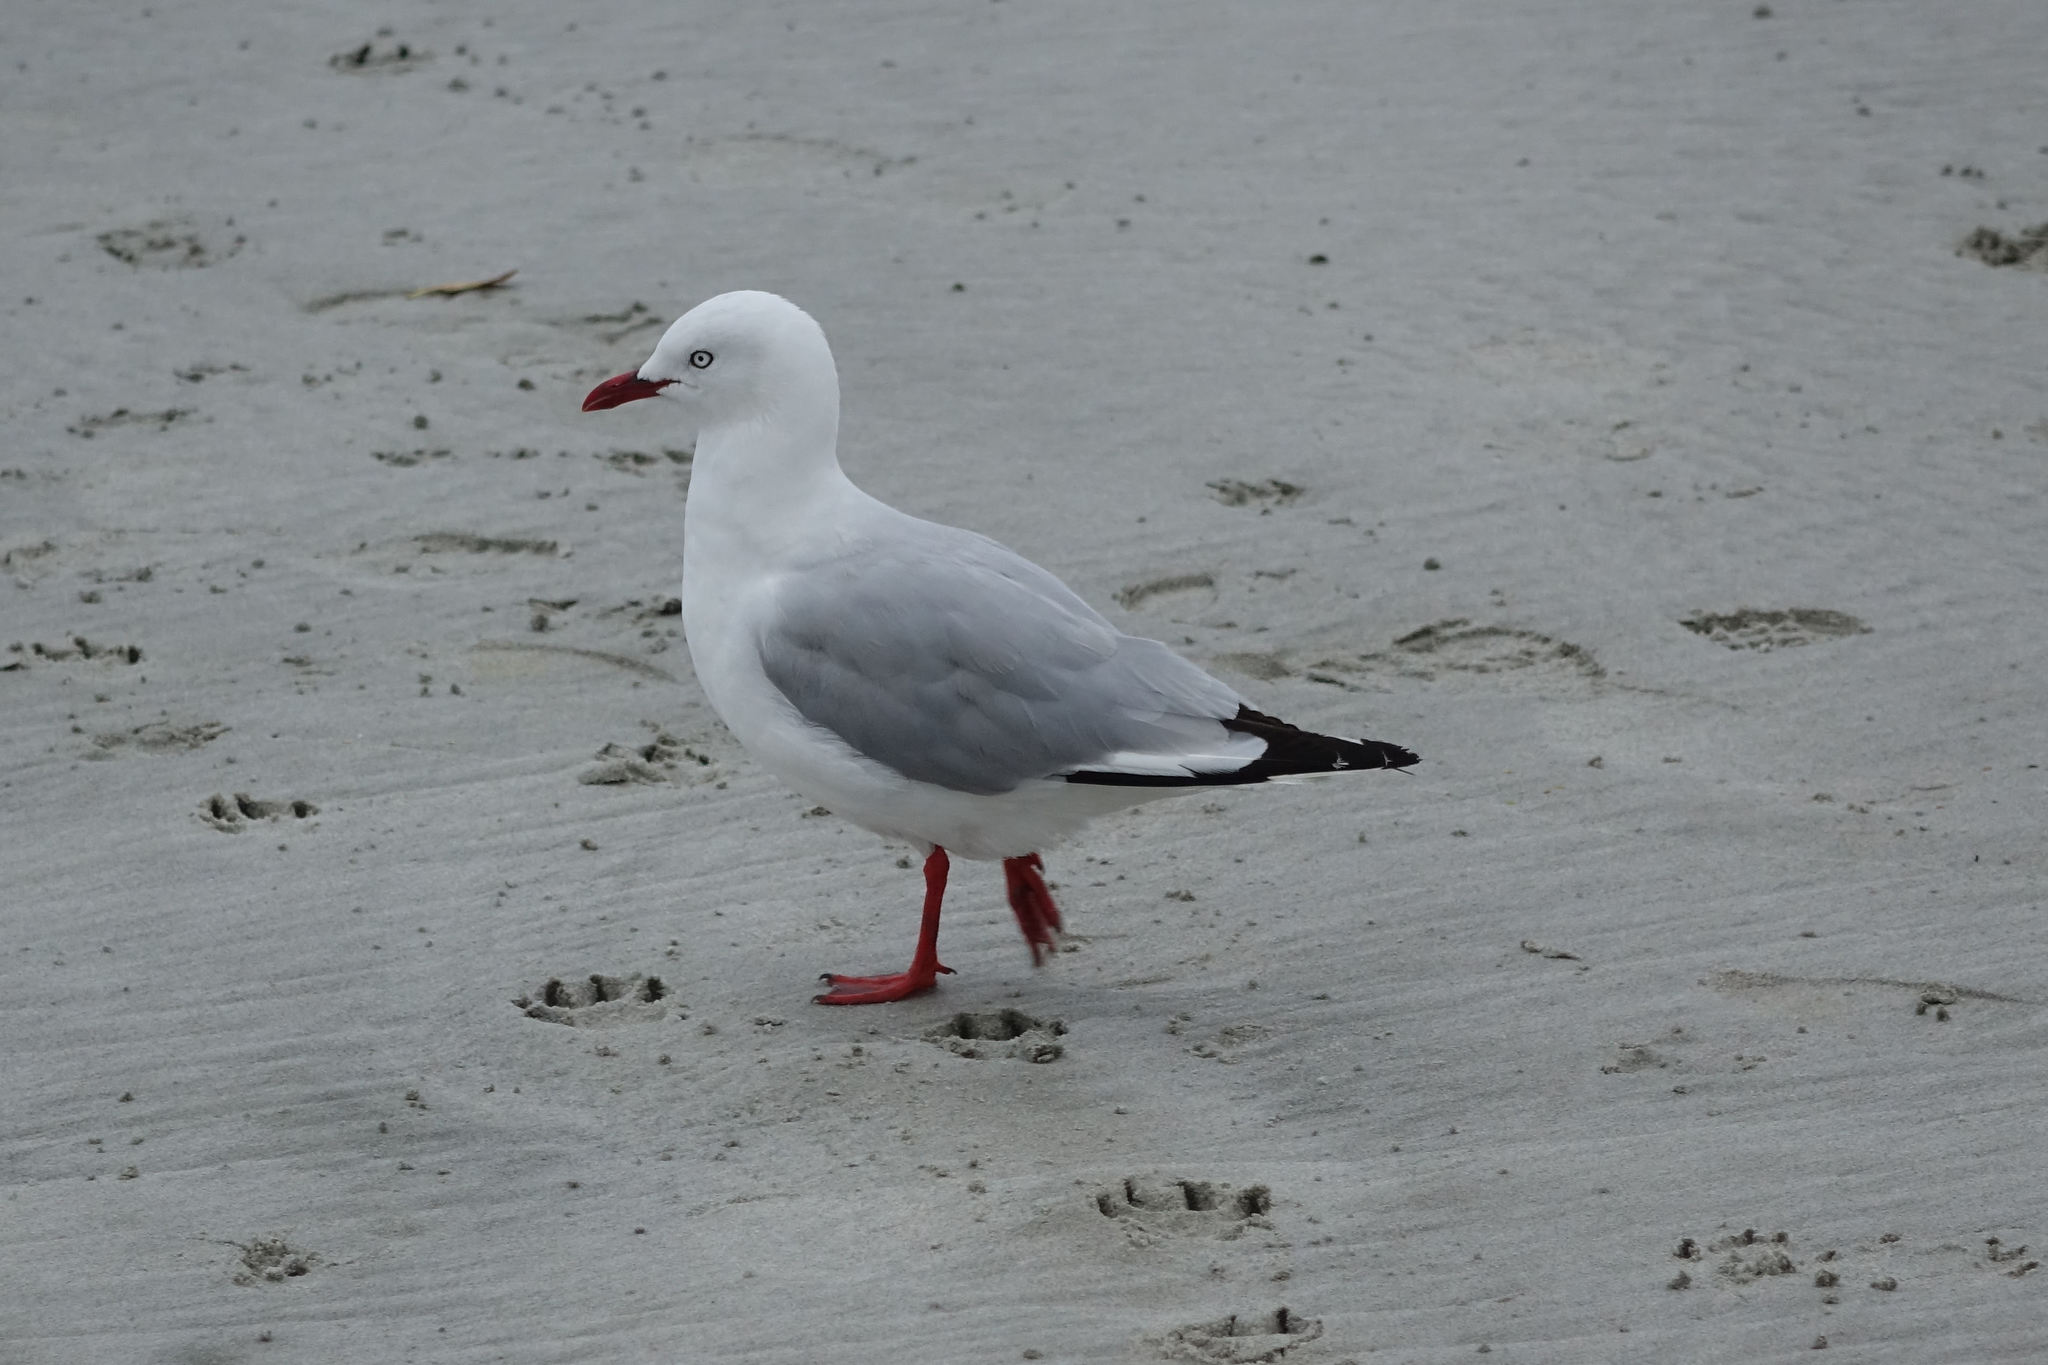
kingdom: Animalia
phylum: Chordata
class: Aves
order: Charadriiformes
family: Laridae
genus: Chroicocephalus
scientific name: Chroicocephalus novaehollandiae
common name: Silver gull
